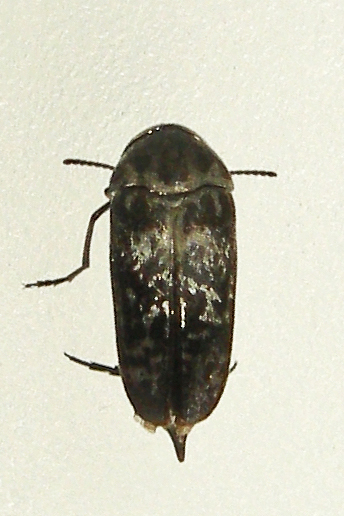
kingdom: Animalia
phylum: Arthropoda
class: Insecta
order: Coleoptera
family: Mordellidae
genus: Mordella
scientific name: Mordella marginata
